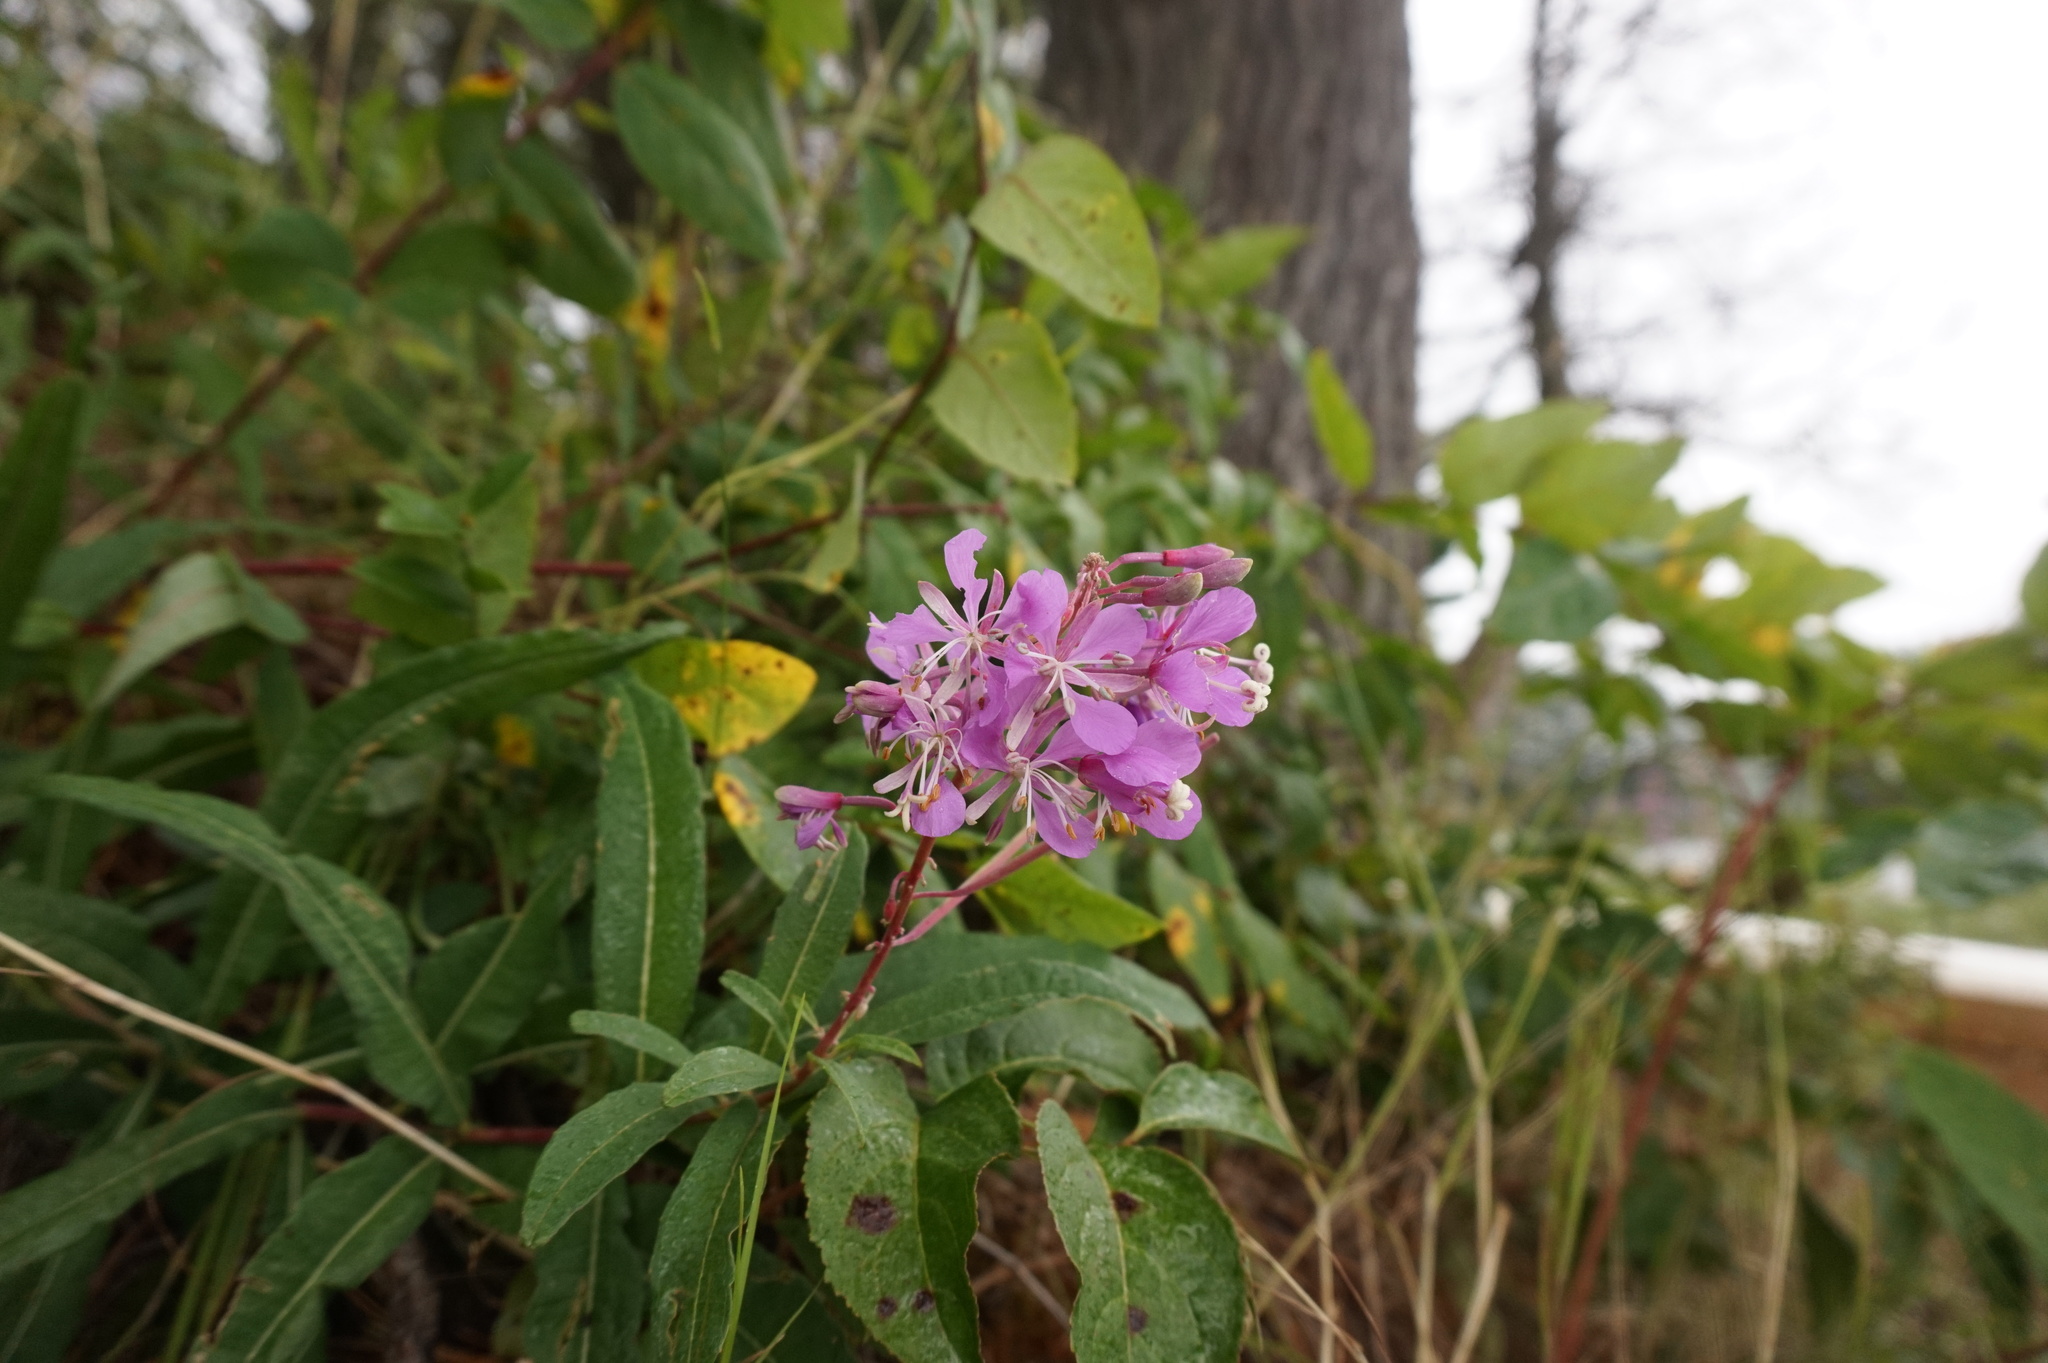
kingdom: Plantae
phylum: Tracheophyta
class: Magnoliopsida
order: Myrtales
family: Onagraceae
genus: Chamaenerion
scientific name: Chamaenerion angustifolium
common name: Fireweed
